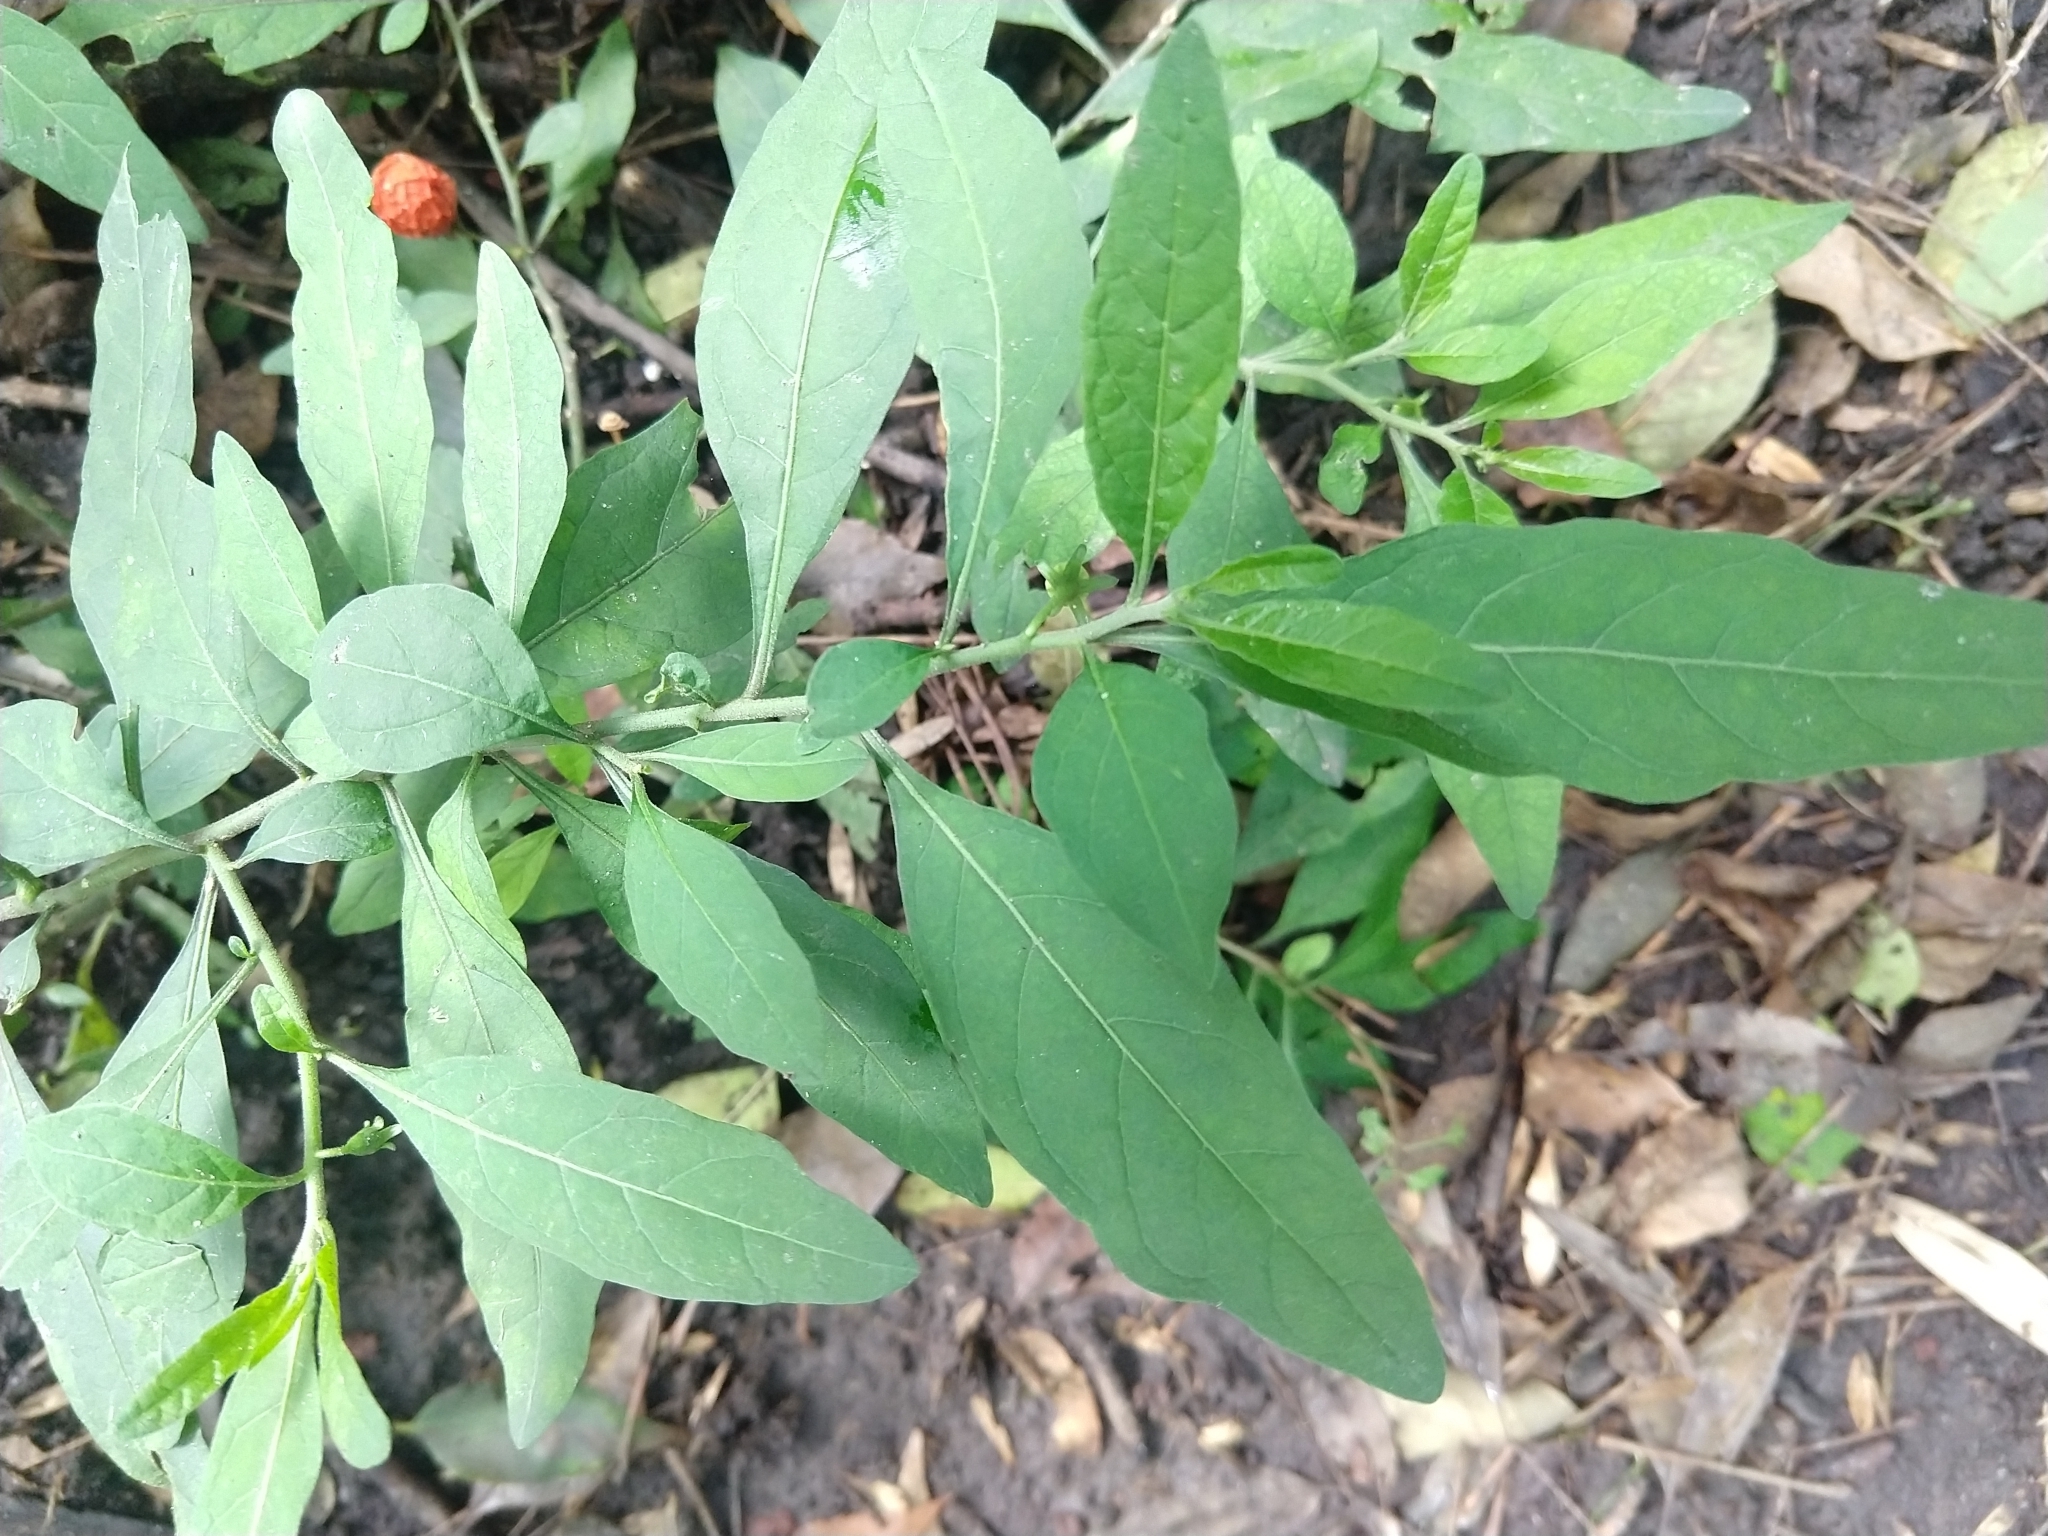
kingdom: Plantae
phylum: Tracheophyta
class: Magnoliopsida
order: Solanales
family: Solanaceae
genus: Solanum
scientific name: Solanum pseudocapsicum
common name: Jerusalem cherry
